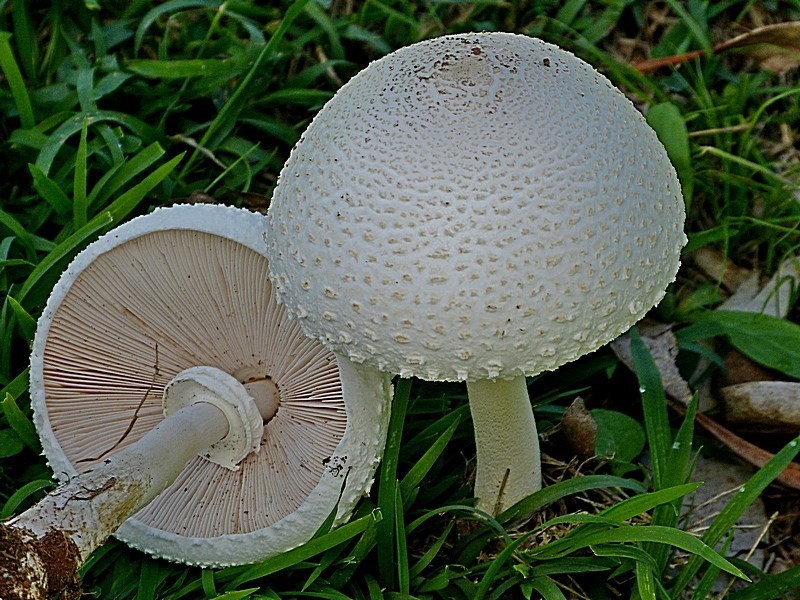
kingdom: Fungi
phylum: Basidiomycota
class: Agaricomycetes
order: Agaricales
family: Agaricaceae
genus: Macrolepiota
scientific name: Macrolepiota dolichaula
